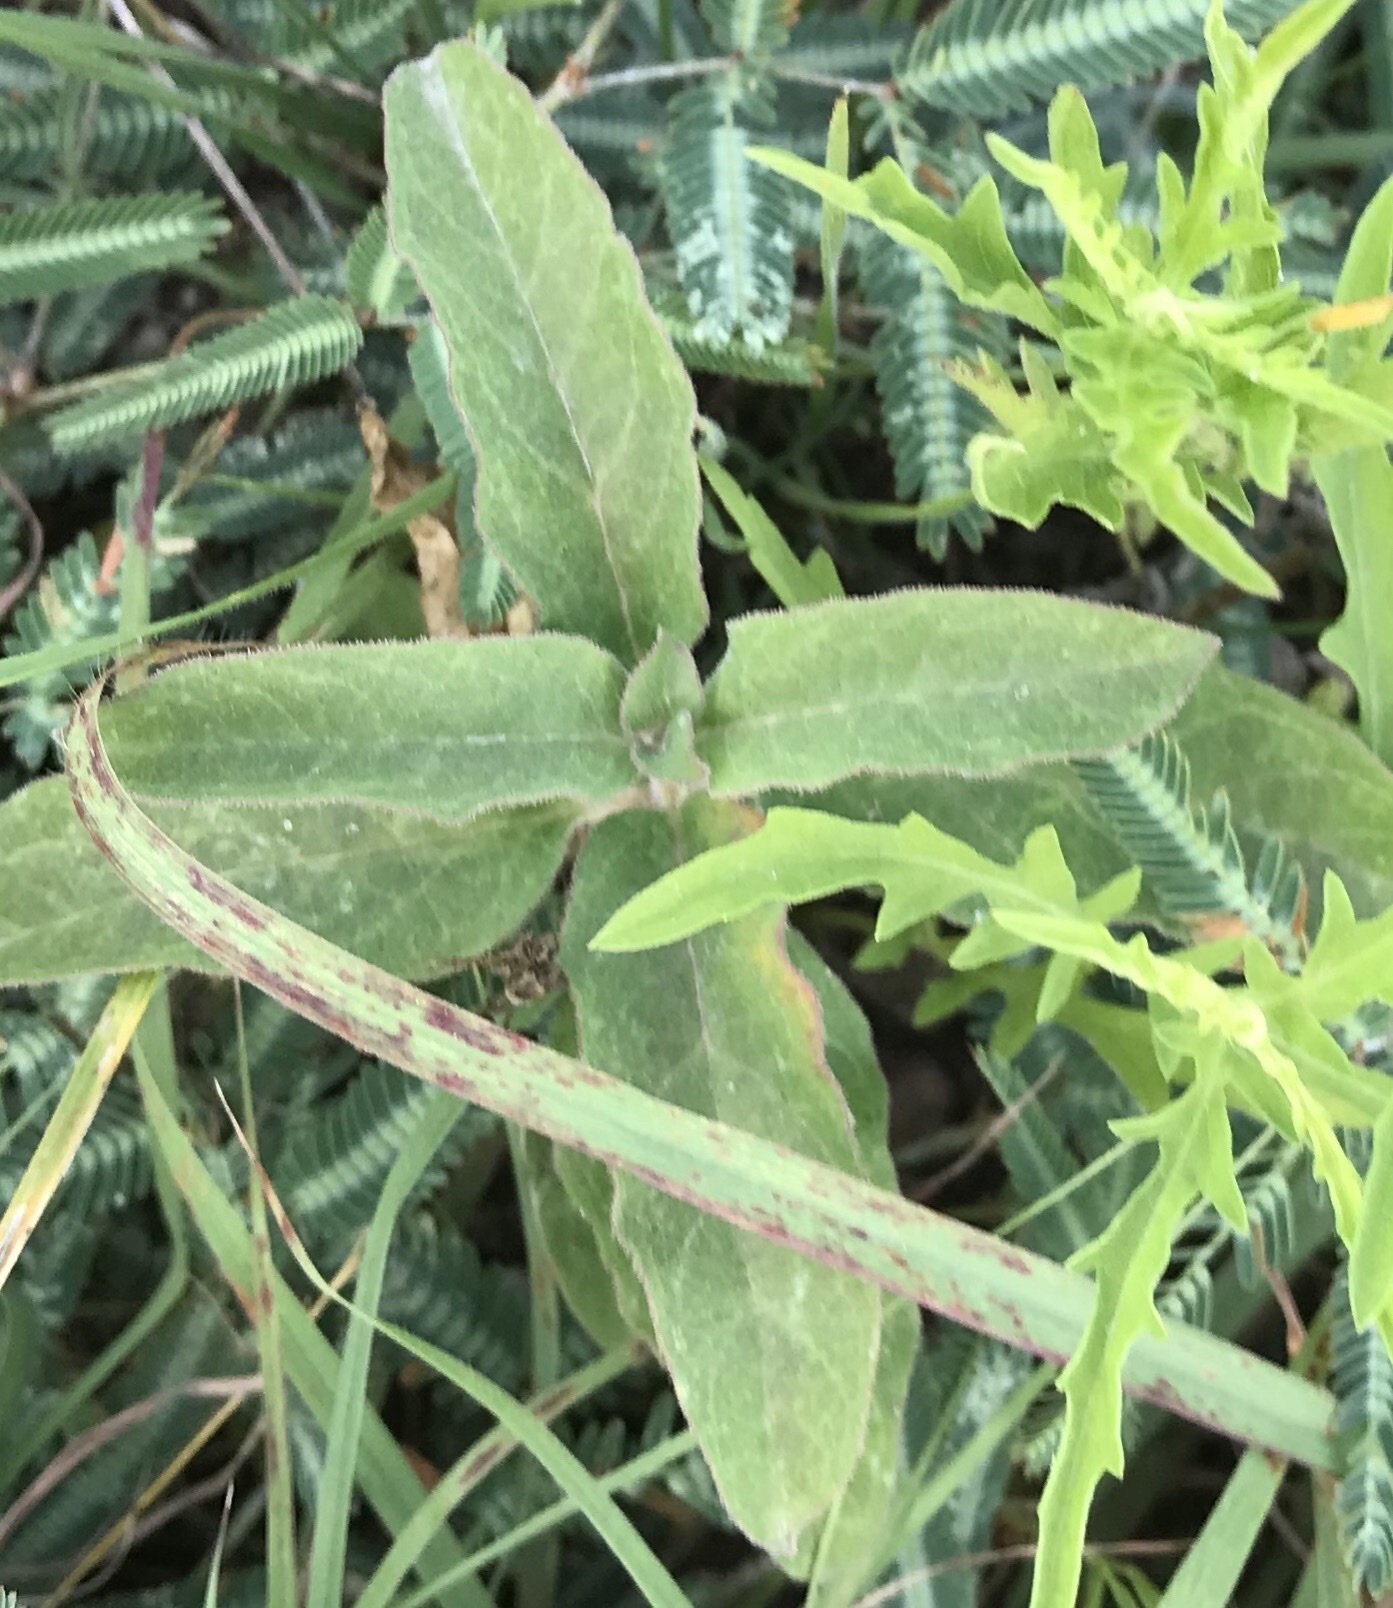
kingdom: Plantae
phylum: Tracheophyta
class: Magnoliopsida
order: Gentianales
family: Apocynaceae
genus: Asclepias
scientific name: Asclepias oenotheroides
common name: Zizotes milkweed
